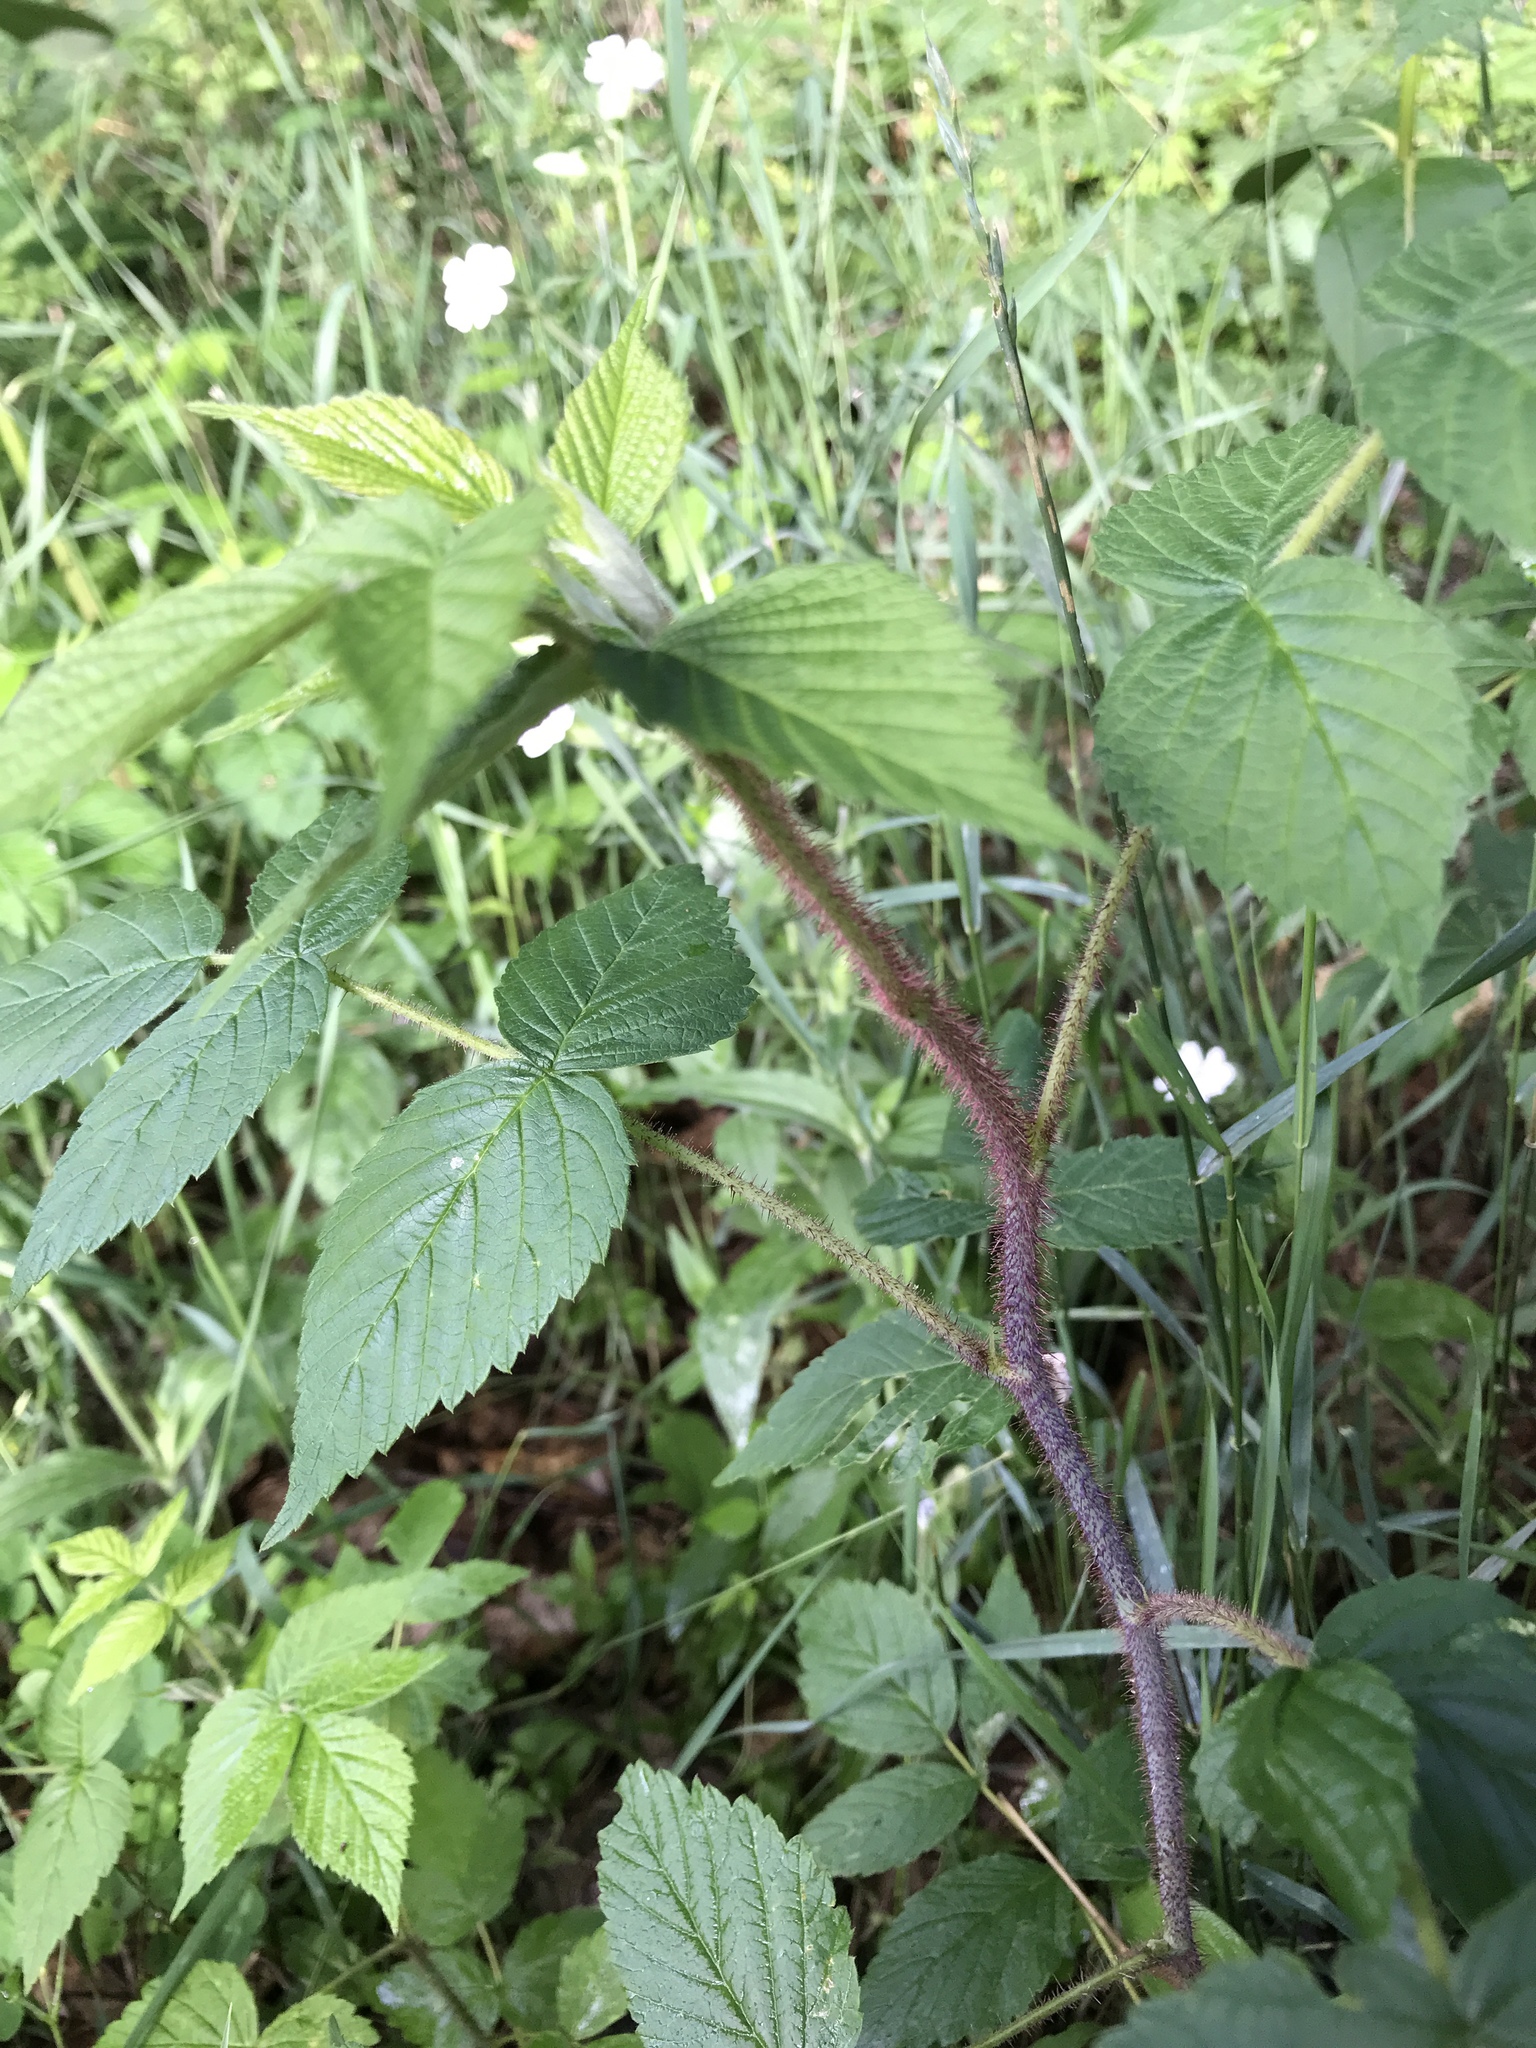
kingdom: Plantae
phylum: Tracheophyta
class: Magnoliopsida
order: Rosales
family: Rosaceae
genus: Rubus
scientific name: Rubus pubescens
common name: Dwarf raspberry
